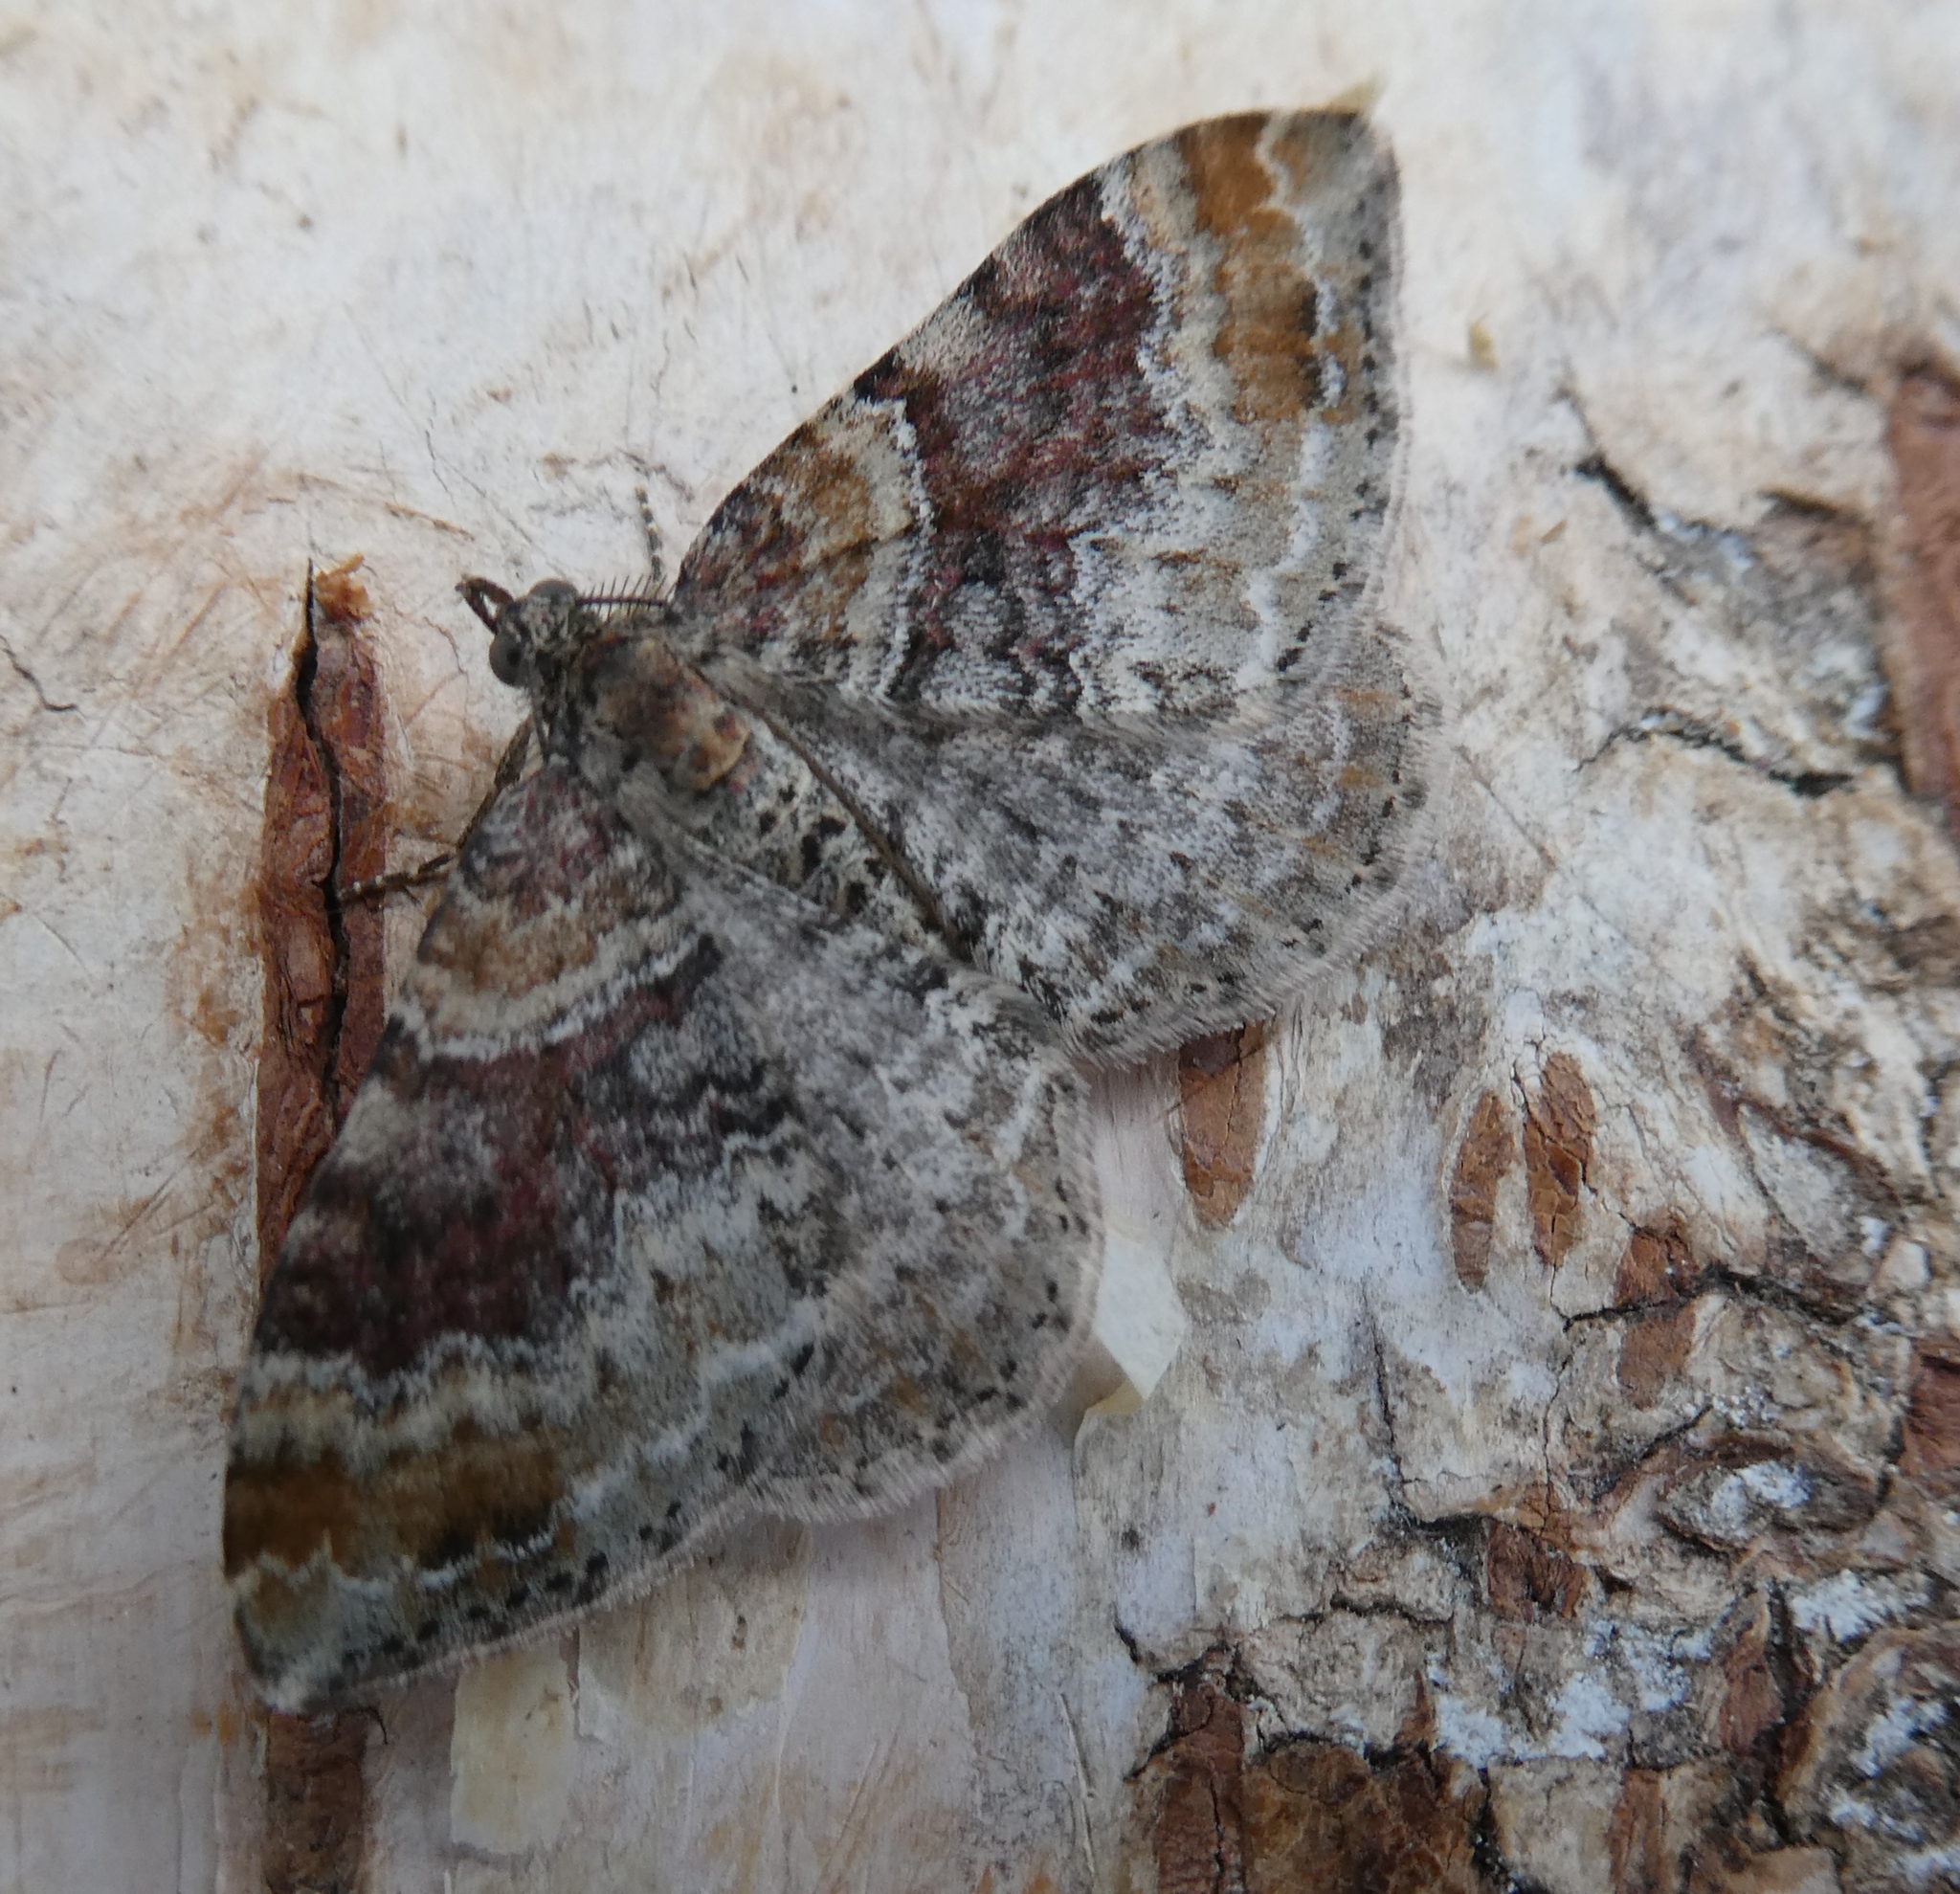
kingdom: Animalia
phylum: Arthropoda
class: Insecta
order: Lepidoptera
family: Geometridae
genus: Xanthorhoe
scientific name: Xanthorhoe spadicearia
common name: Red twin-spot carpet
